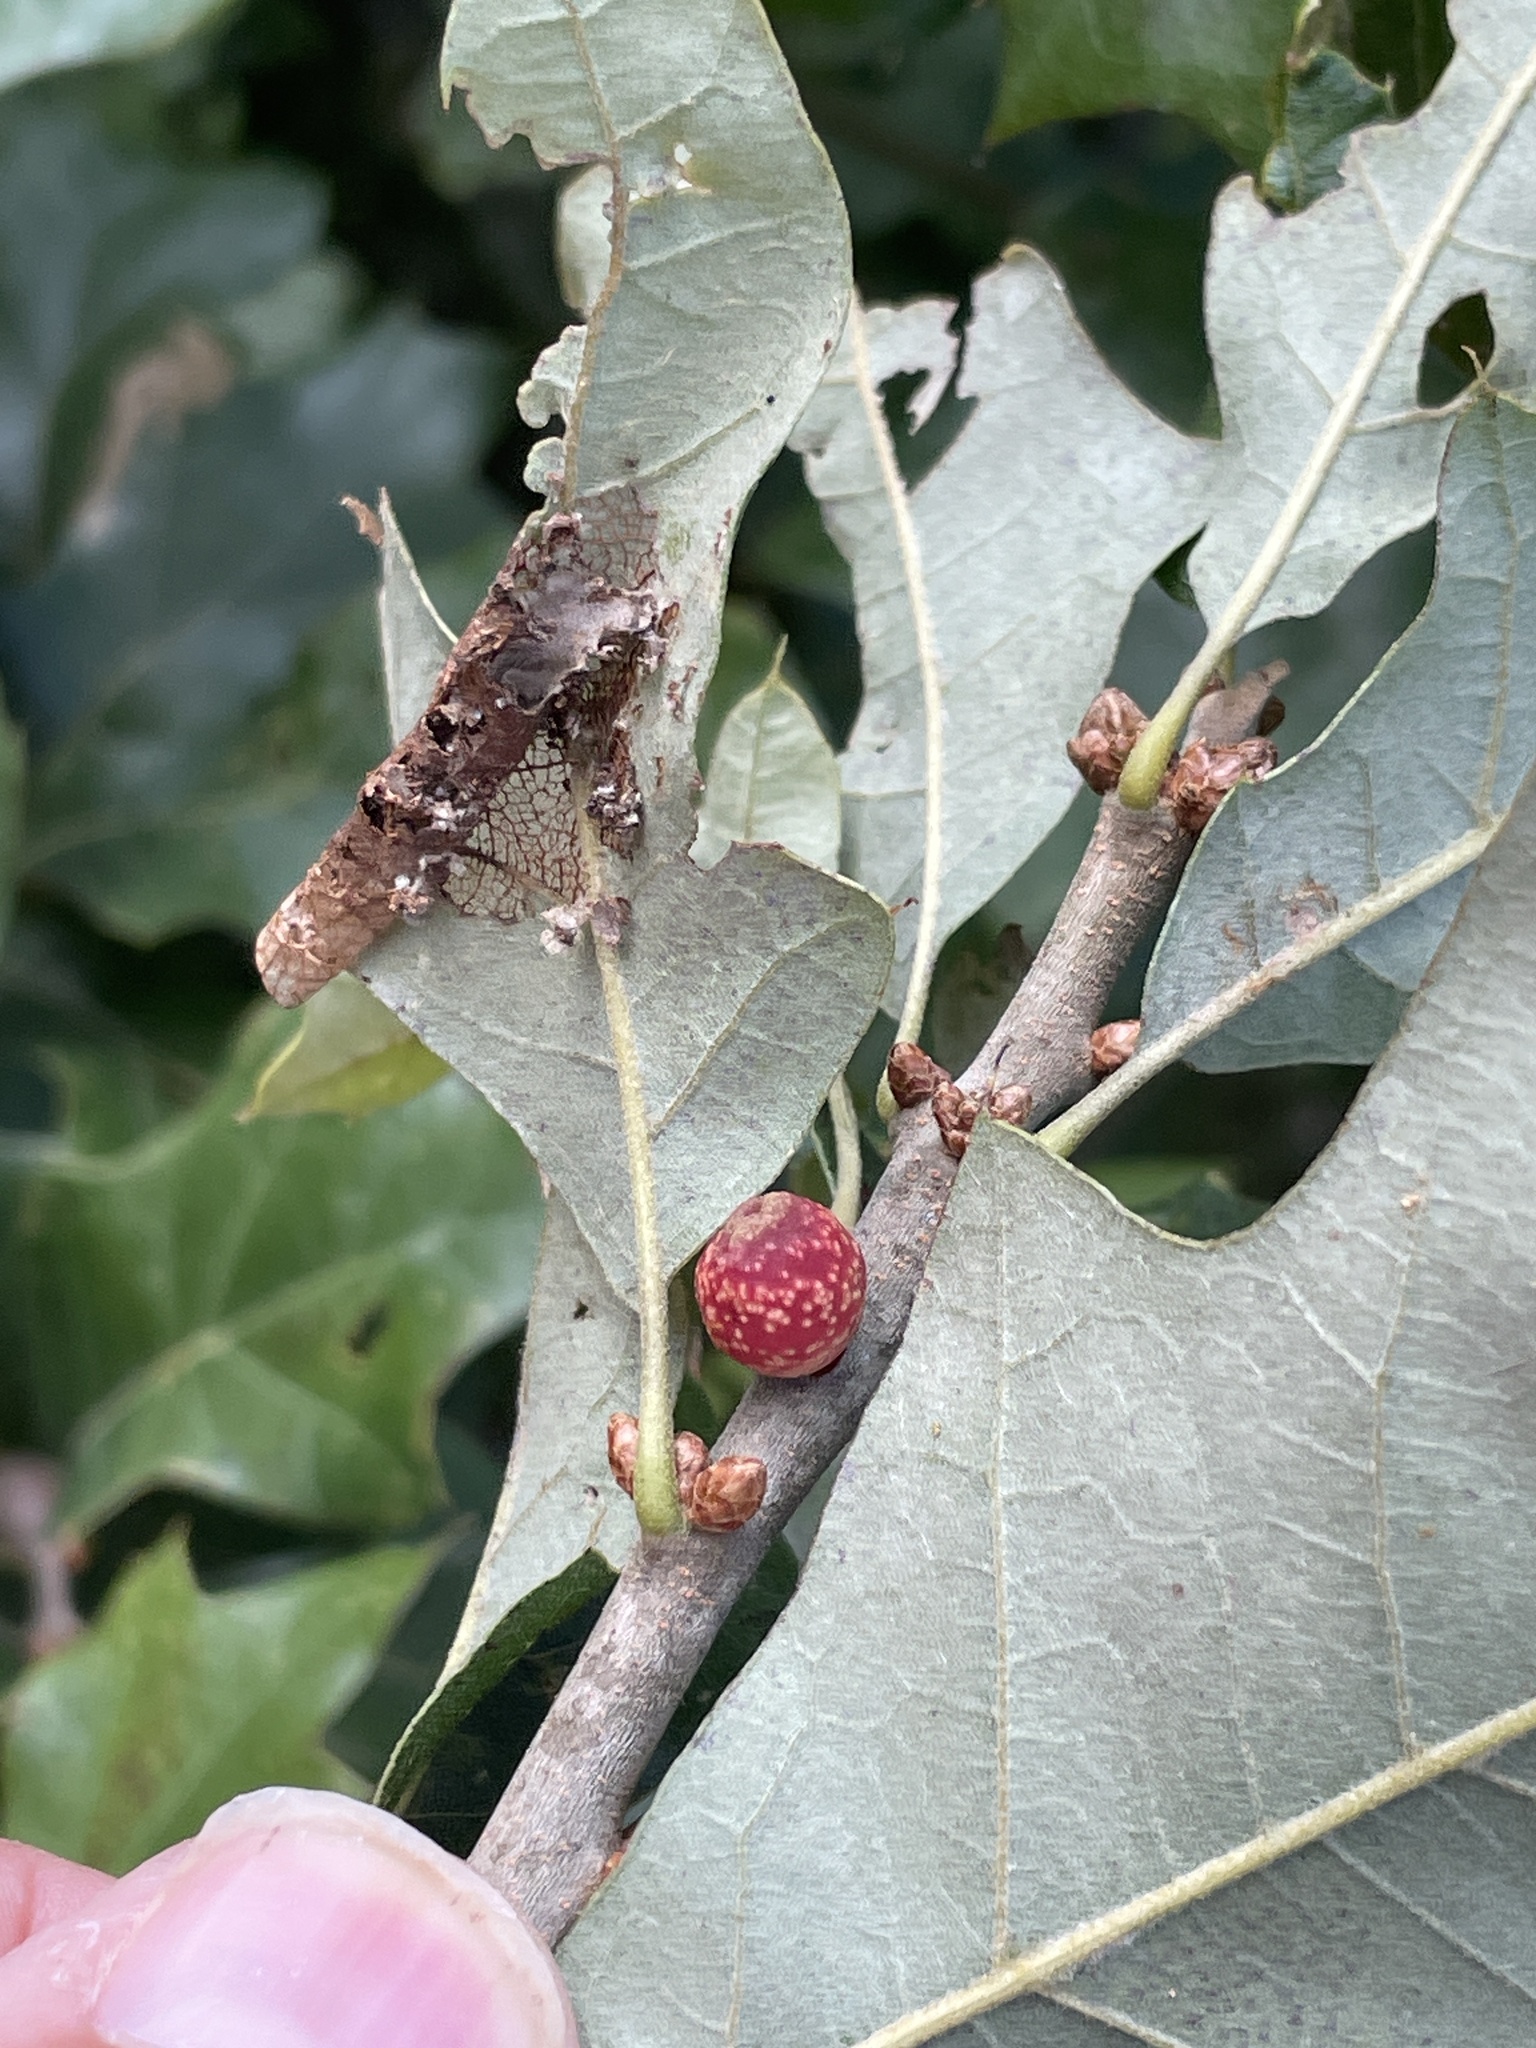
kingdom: Animalia
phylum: Arthropoda
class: Insecta
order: Hymenoptera
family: Cynipidae
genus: Kokkocynips
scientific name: Kokkocynips imbricariae
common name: Banded bullet gall wasp
